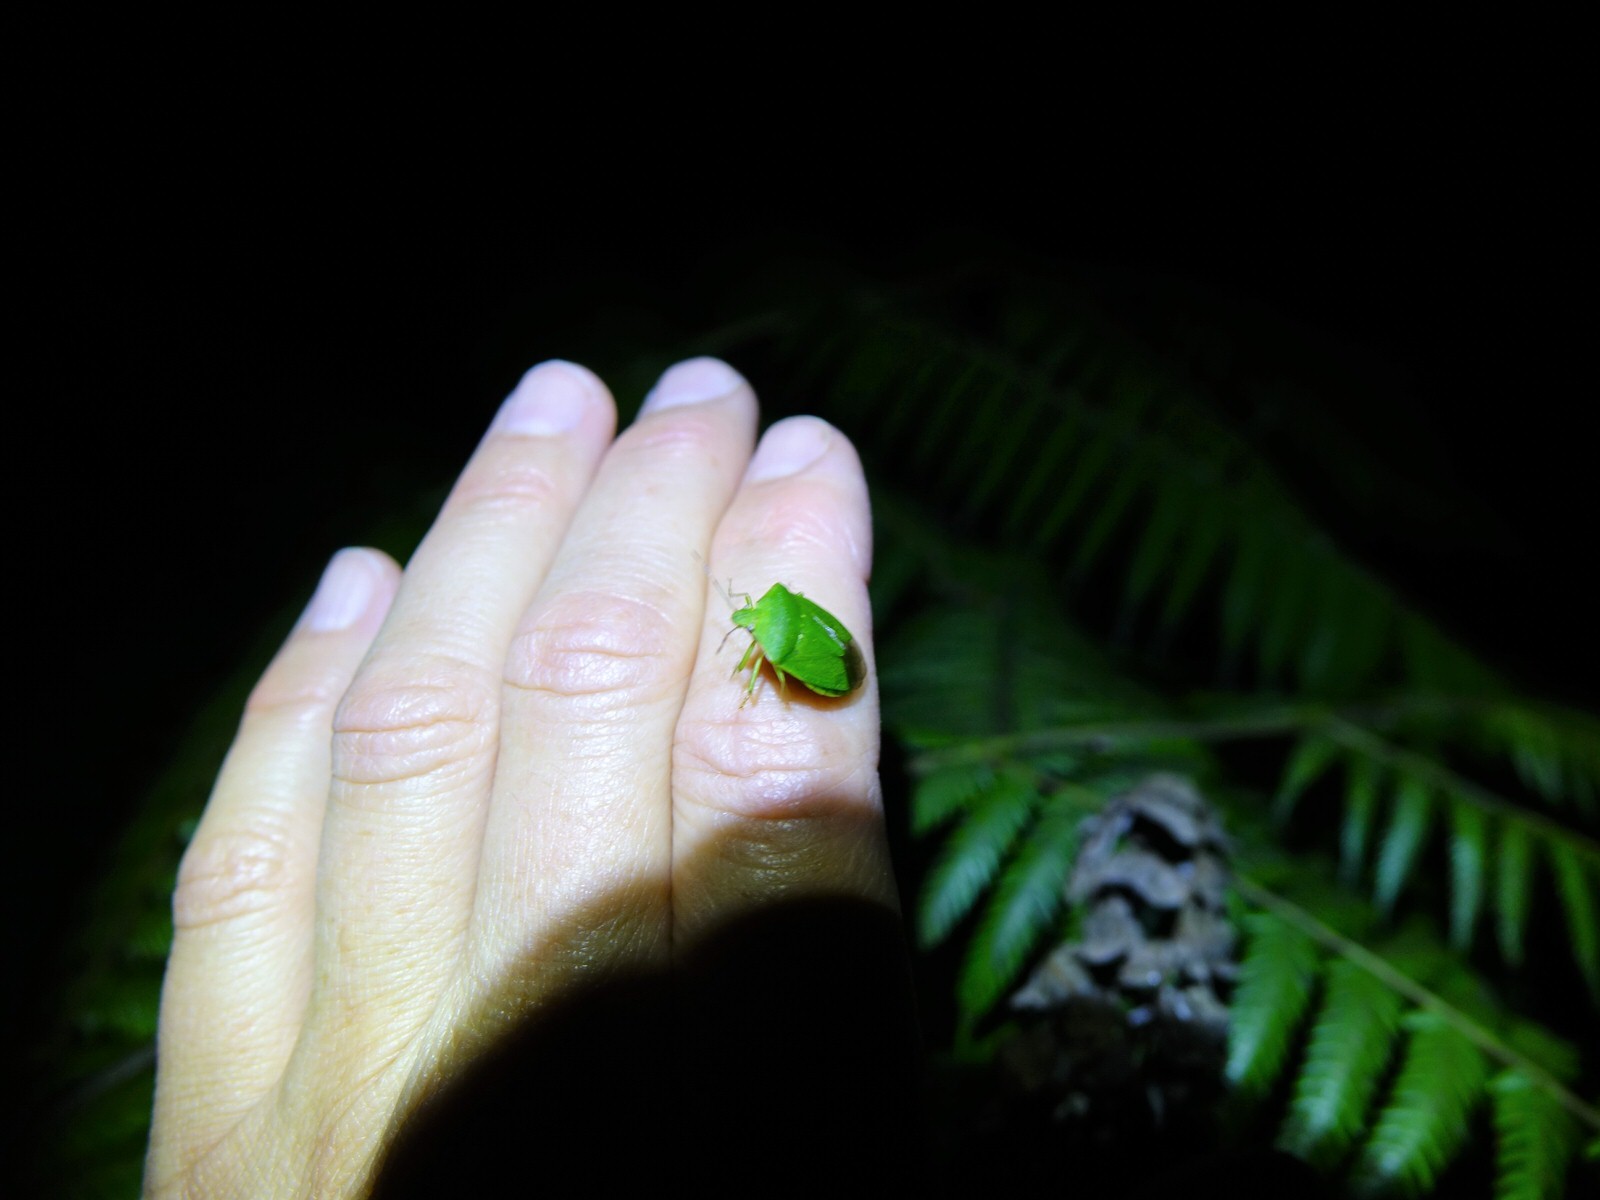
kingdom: Animalia
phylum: Arthropoda
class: Insecta
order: Hemiptera
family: Pentatomidae
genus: Nezara
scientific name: Nezara viridula
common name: Southern green stink bug
